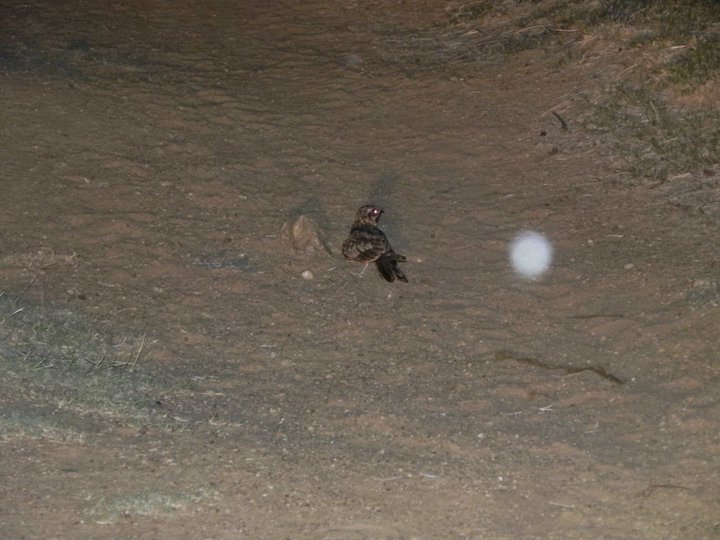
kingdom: Animalia
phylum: Chordata
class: Aves
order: Caprimulgiformes
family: Caprimulgidae
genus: Caprimulgus
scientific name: Caprimulgus asiaticus
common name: Indian nightjar
